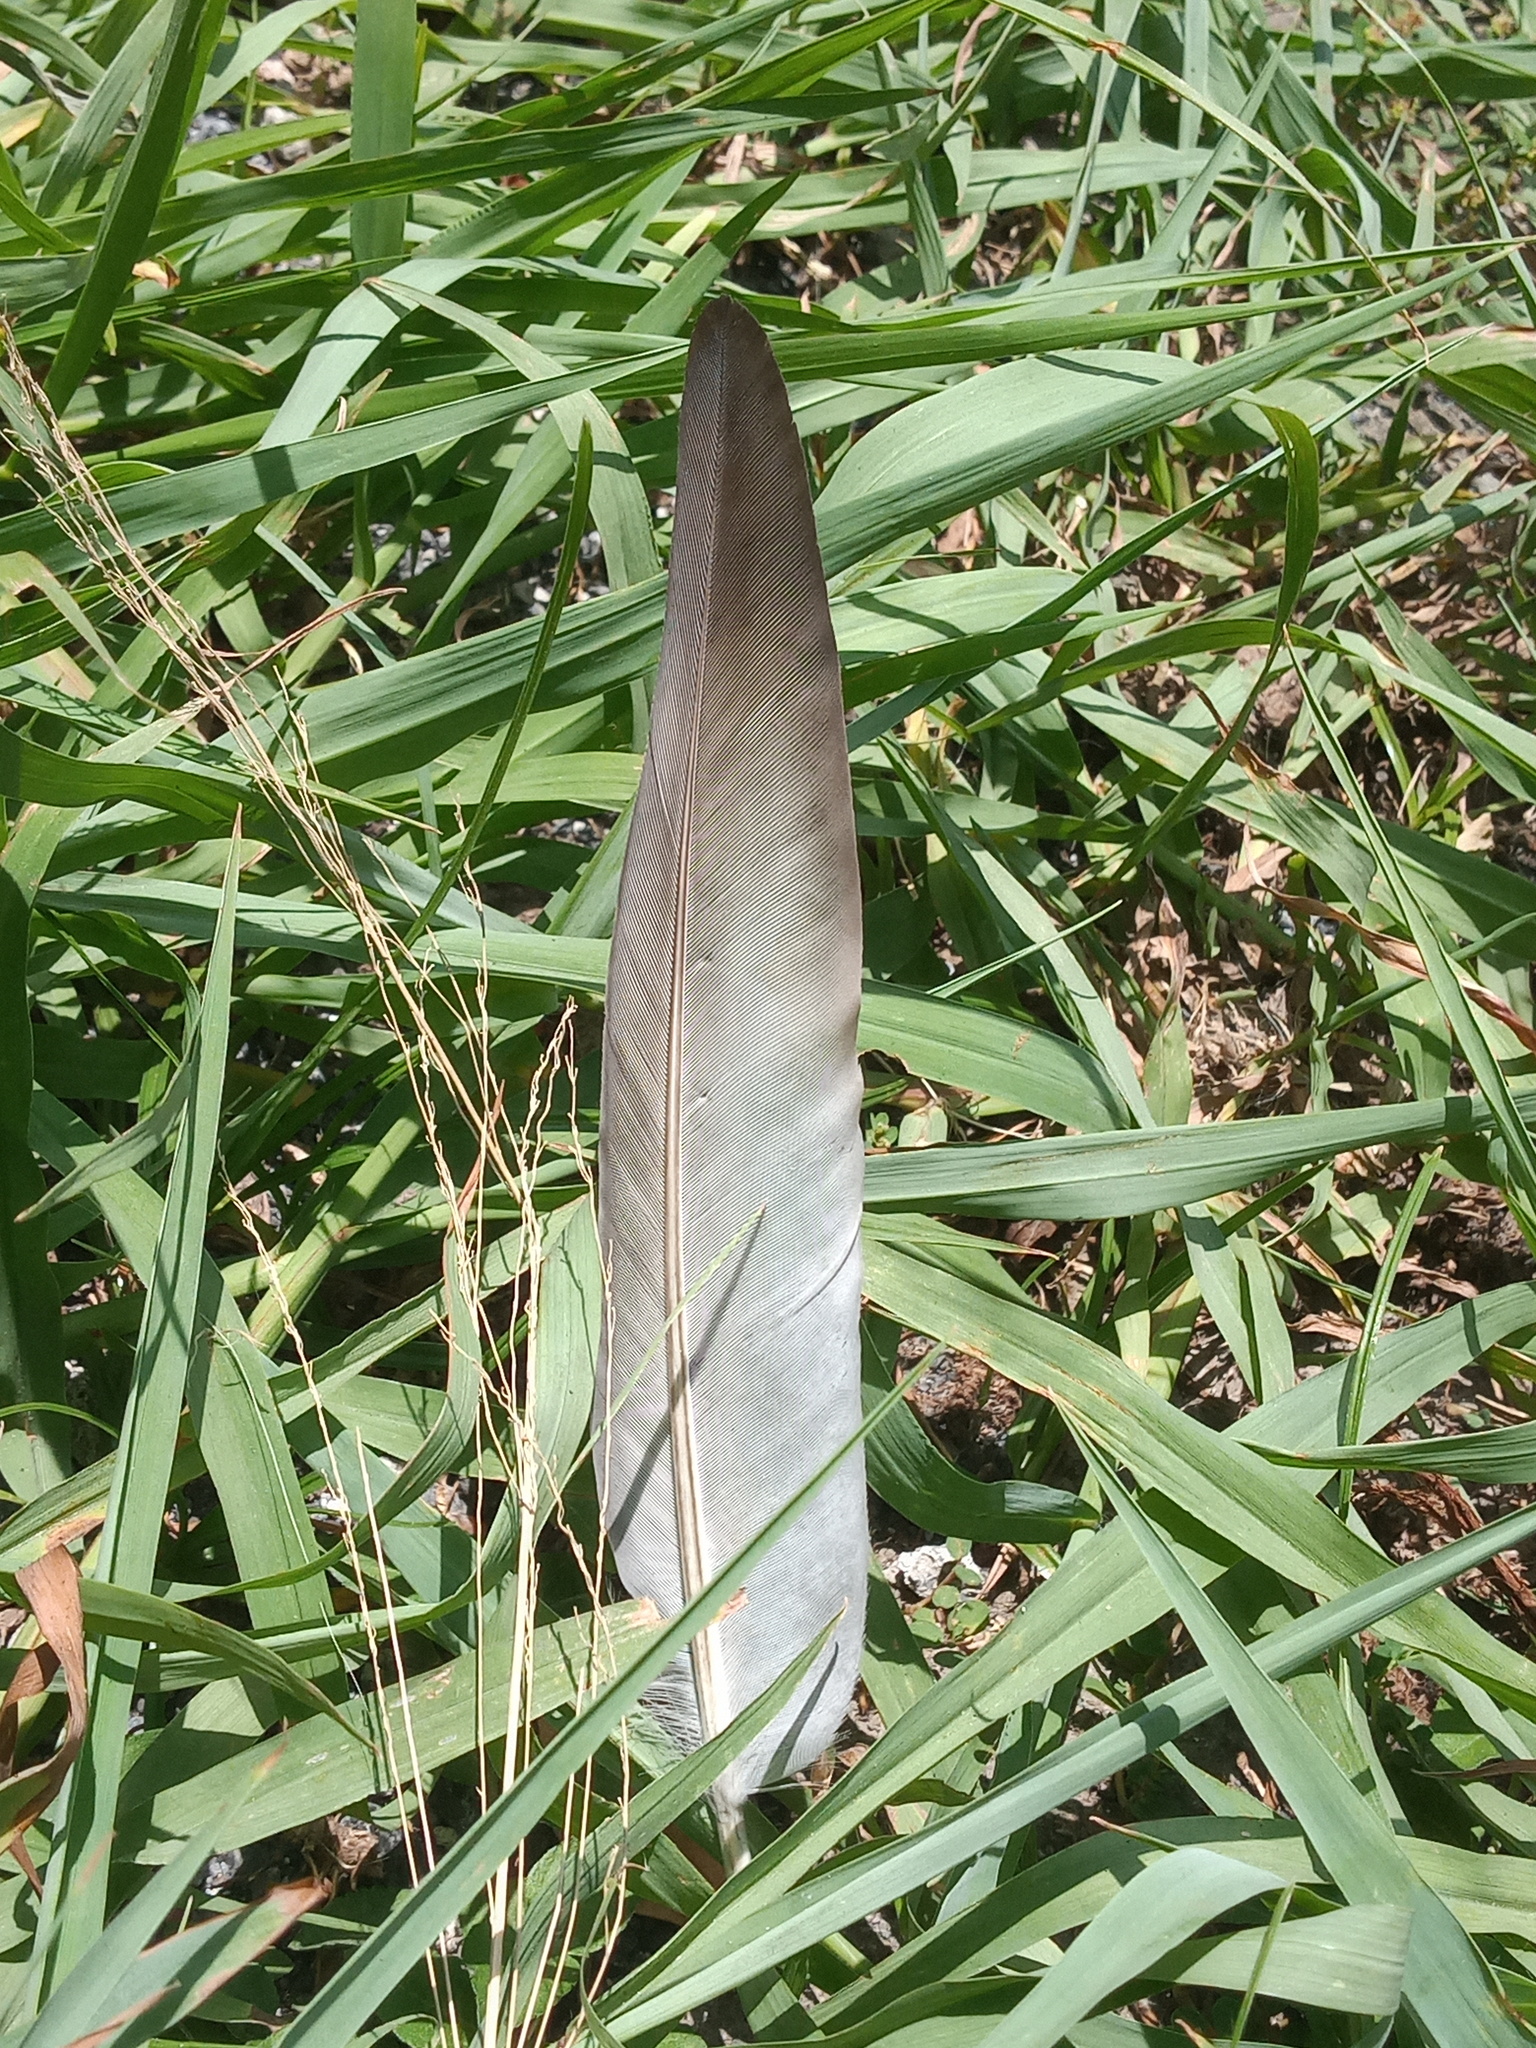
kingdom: Animalia
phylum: Chordata
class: Aves
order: Columbiformes
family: Columbidae
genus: Columba
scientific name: Columba livia
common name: Rock pigeon
